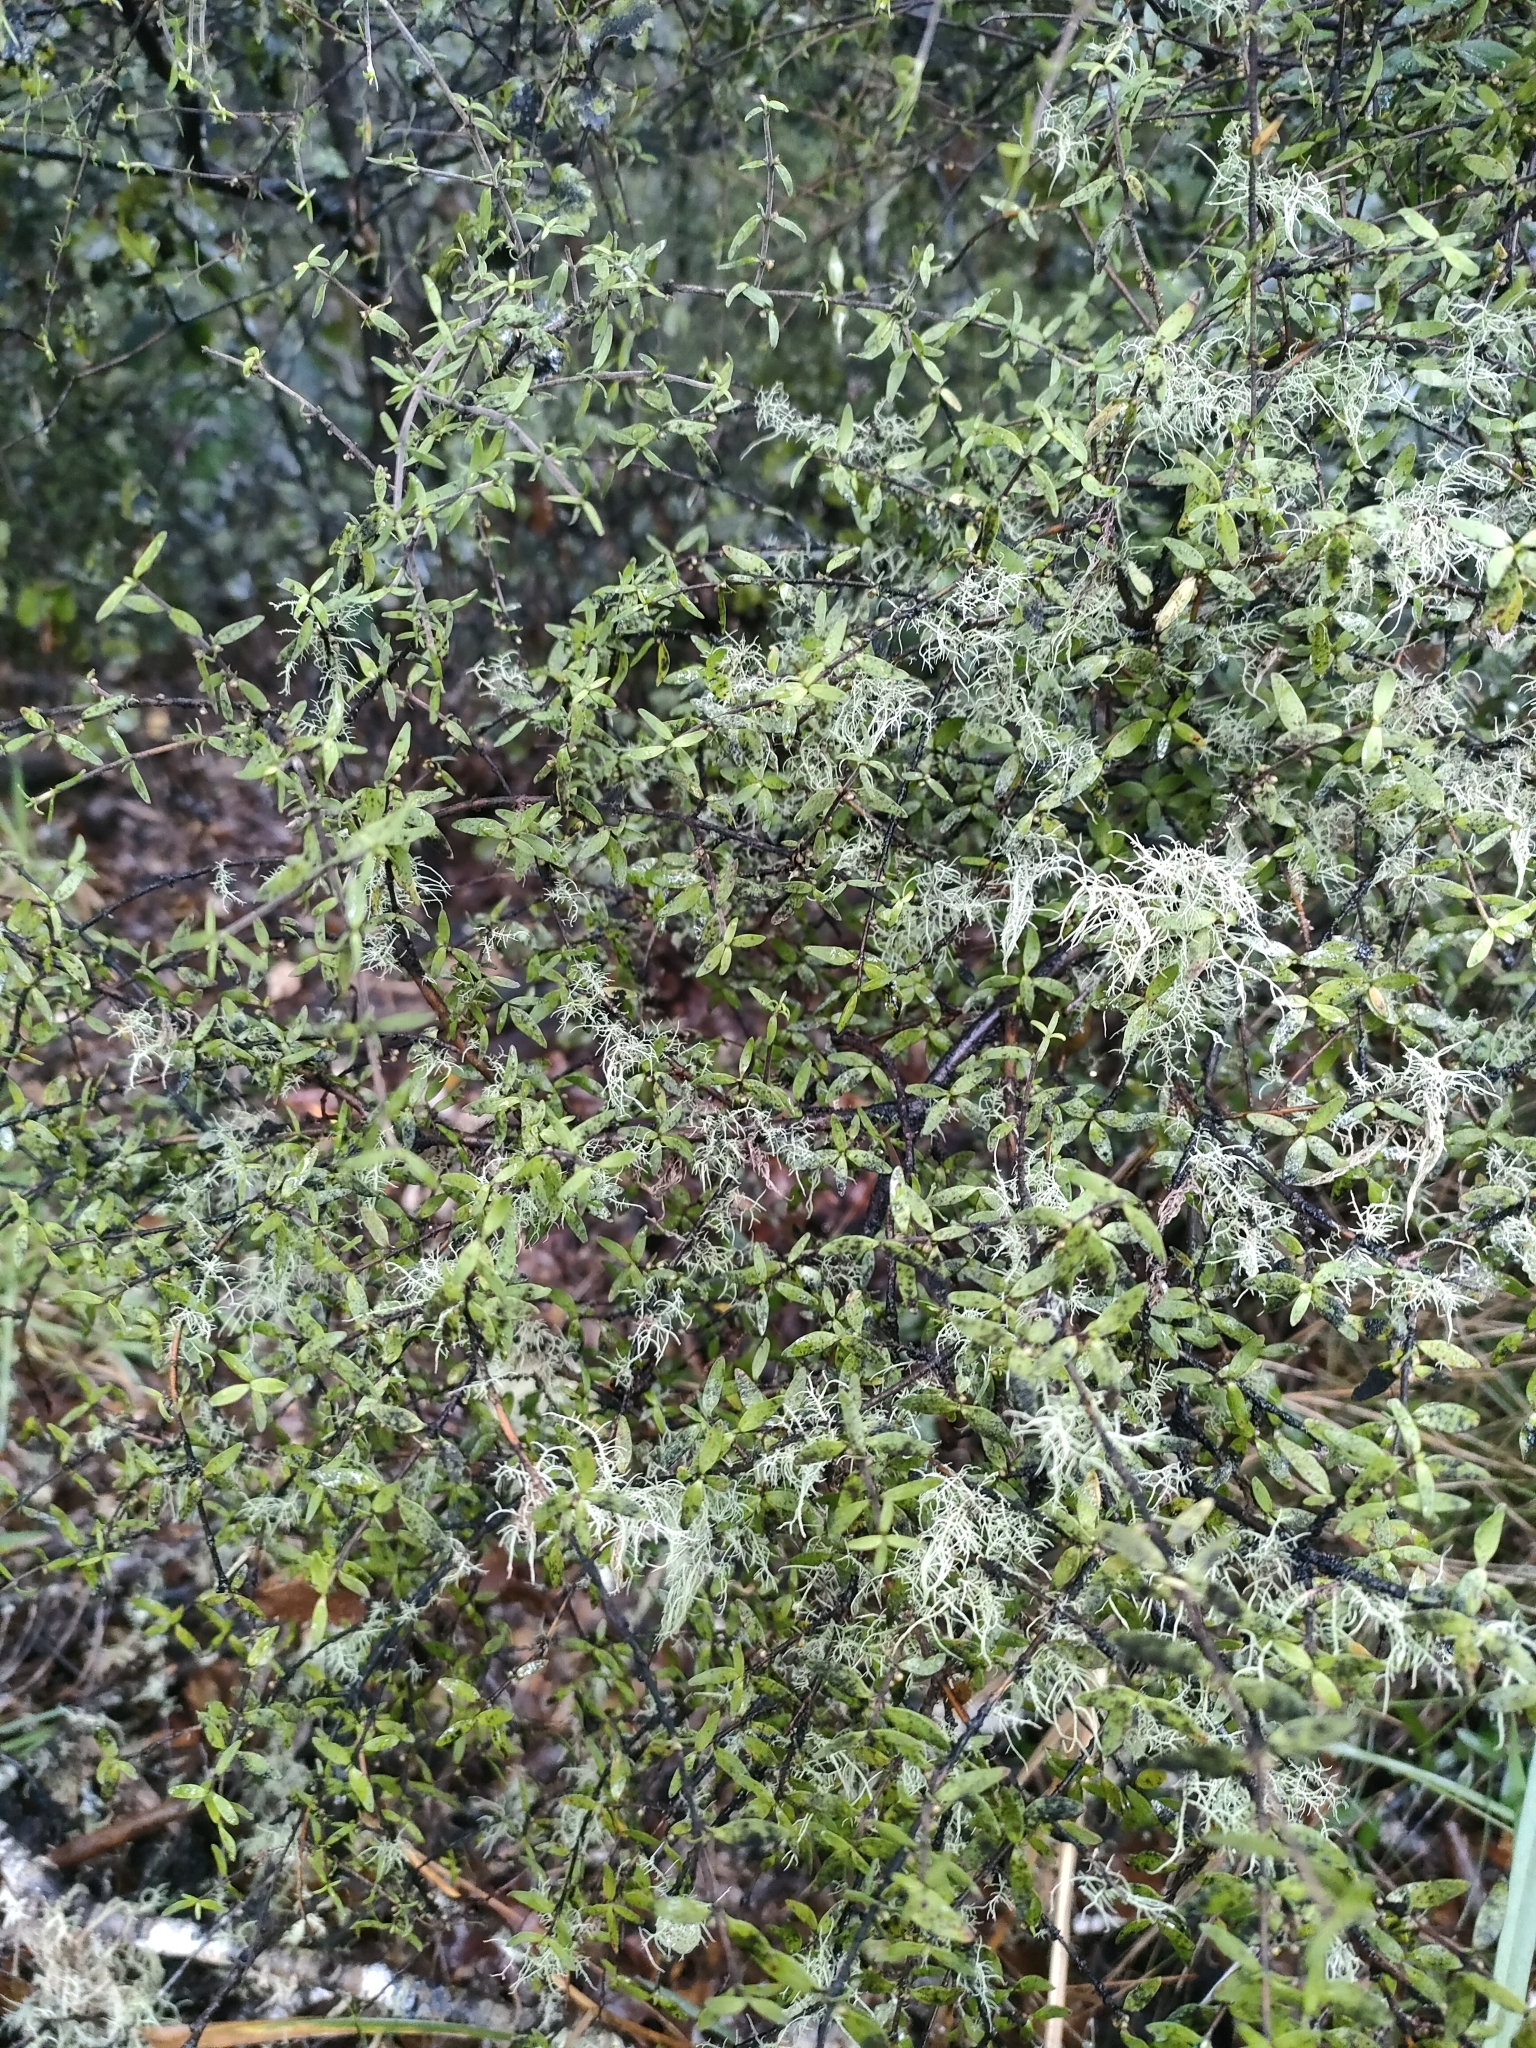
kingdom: Plantae
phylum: Tracheophyta
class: Magnoliopsida
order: Gentianales
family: Rubiaceae
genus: Coprosma
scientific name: Coprosma microcarpa
